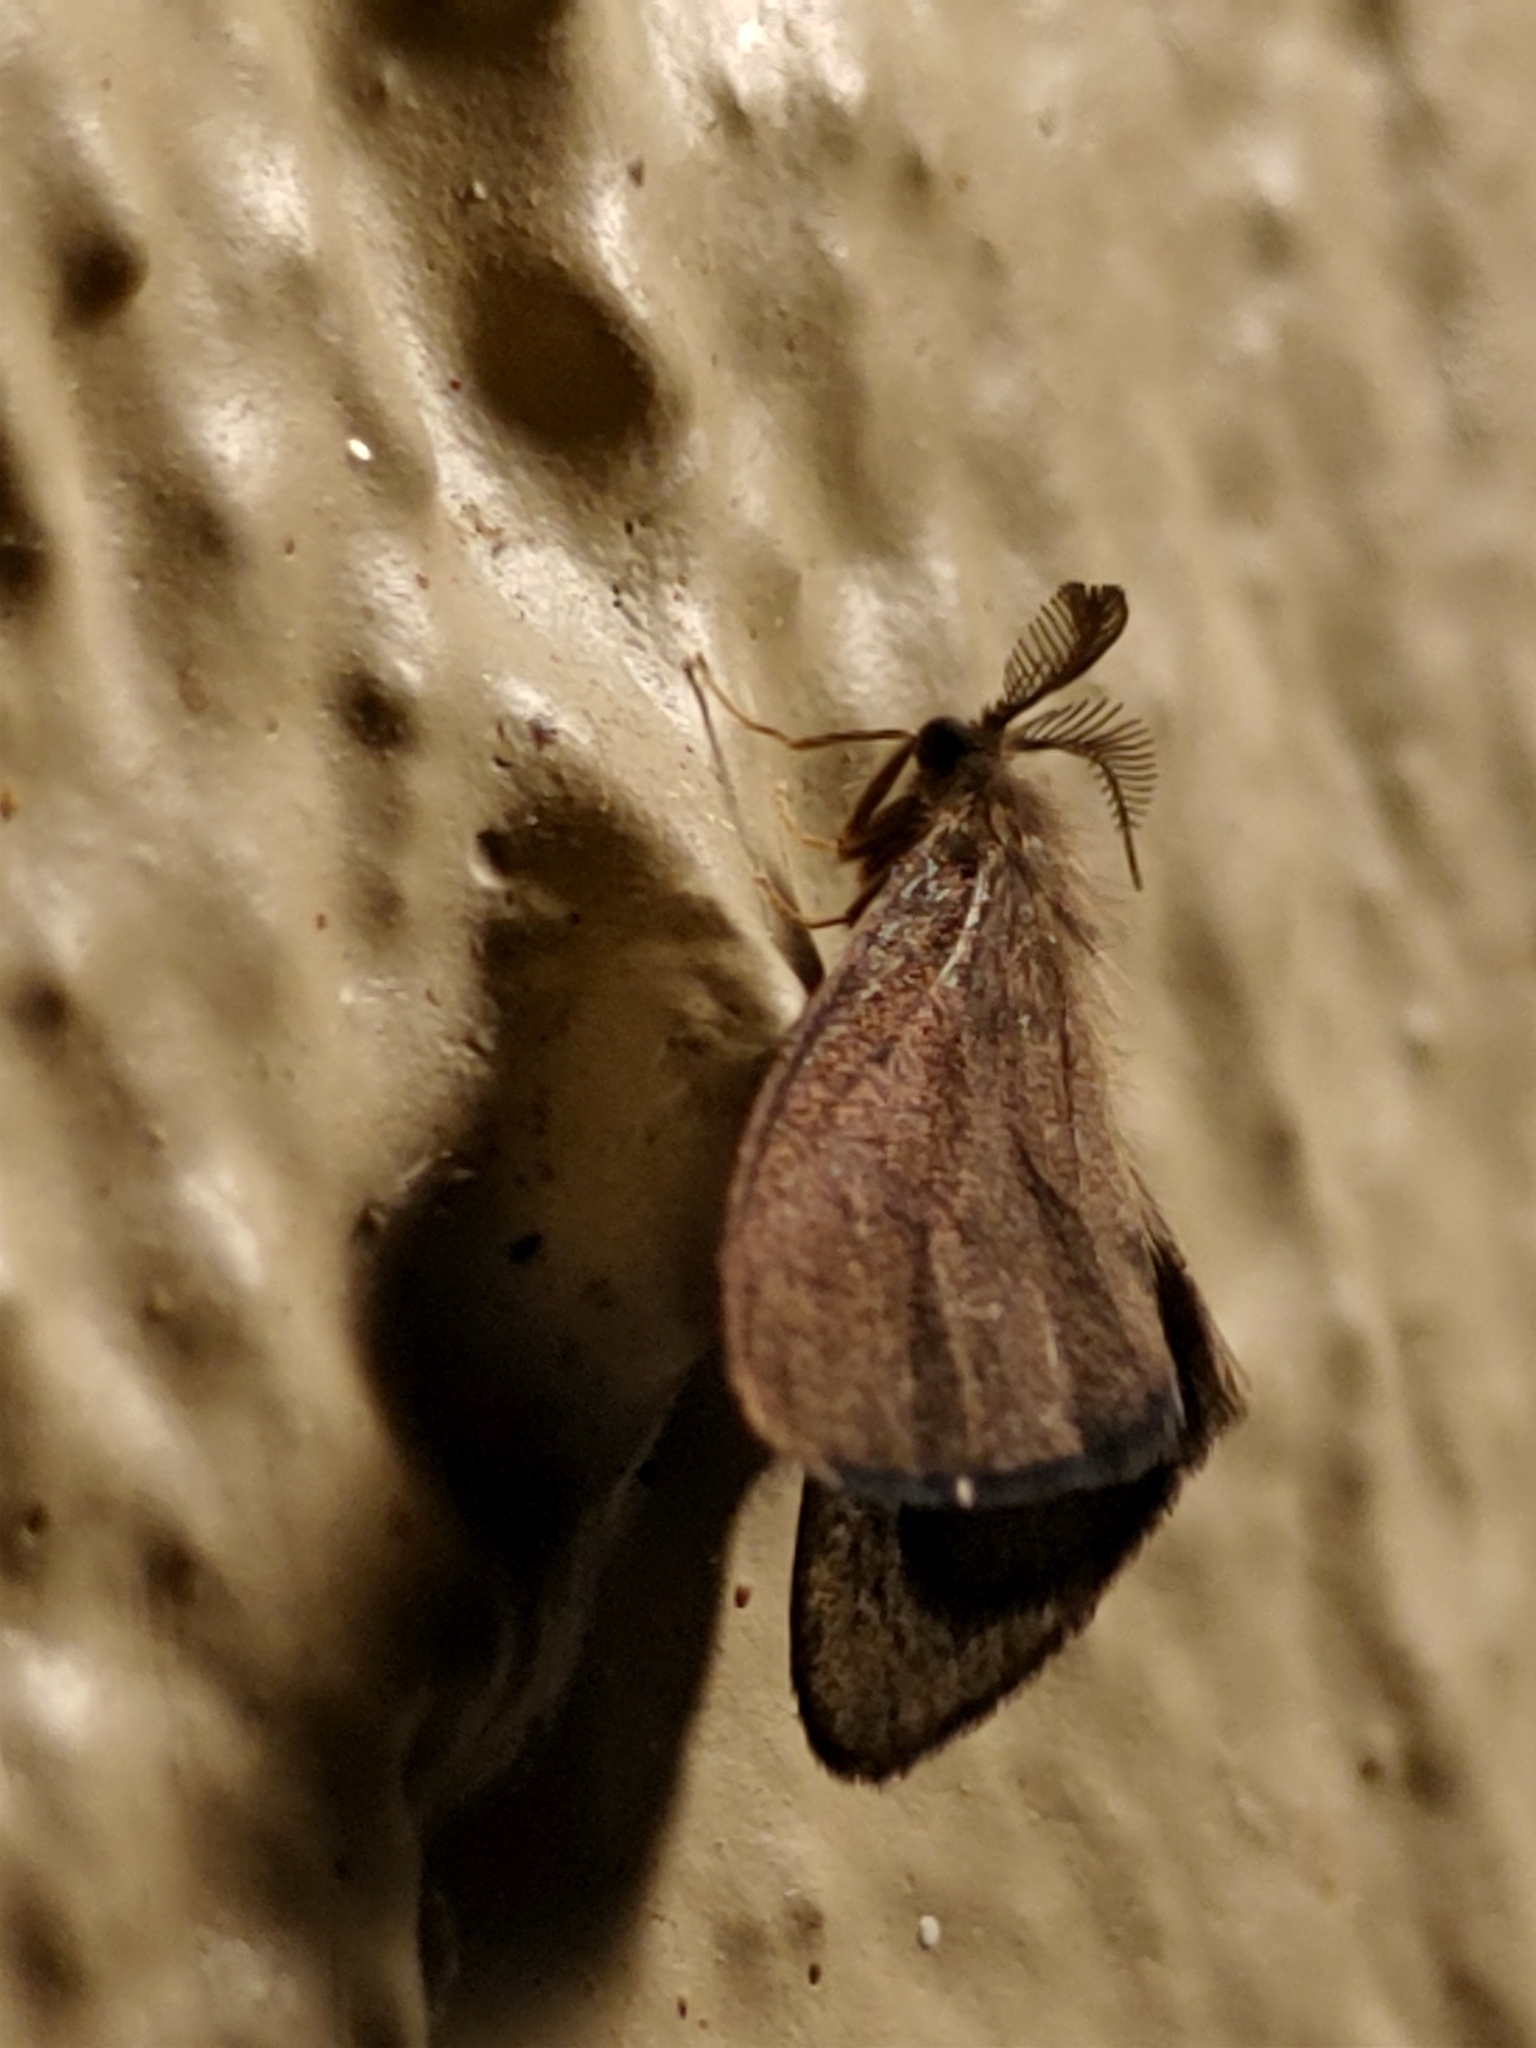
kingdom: Animalia
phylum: Arthropoda
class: Insecta
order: Lepidoptera
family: Psychidae
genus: Cryptothelea
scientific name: Cryptothelea nigrita
